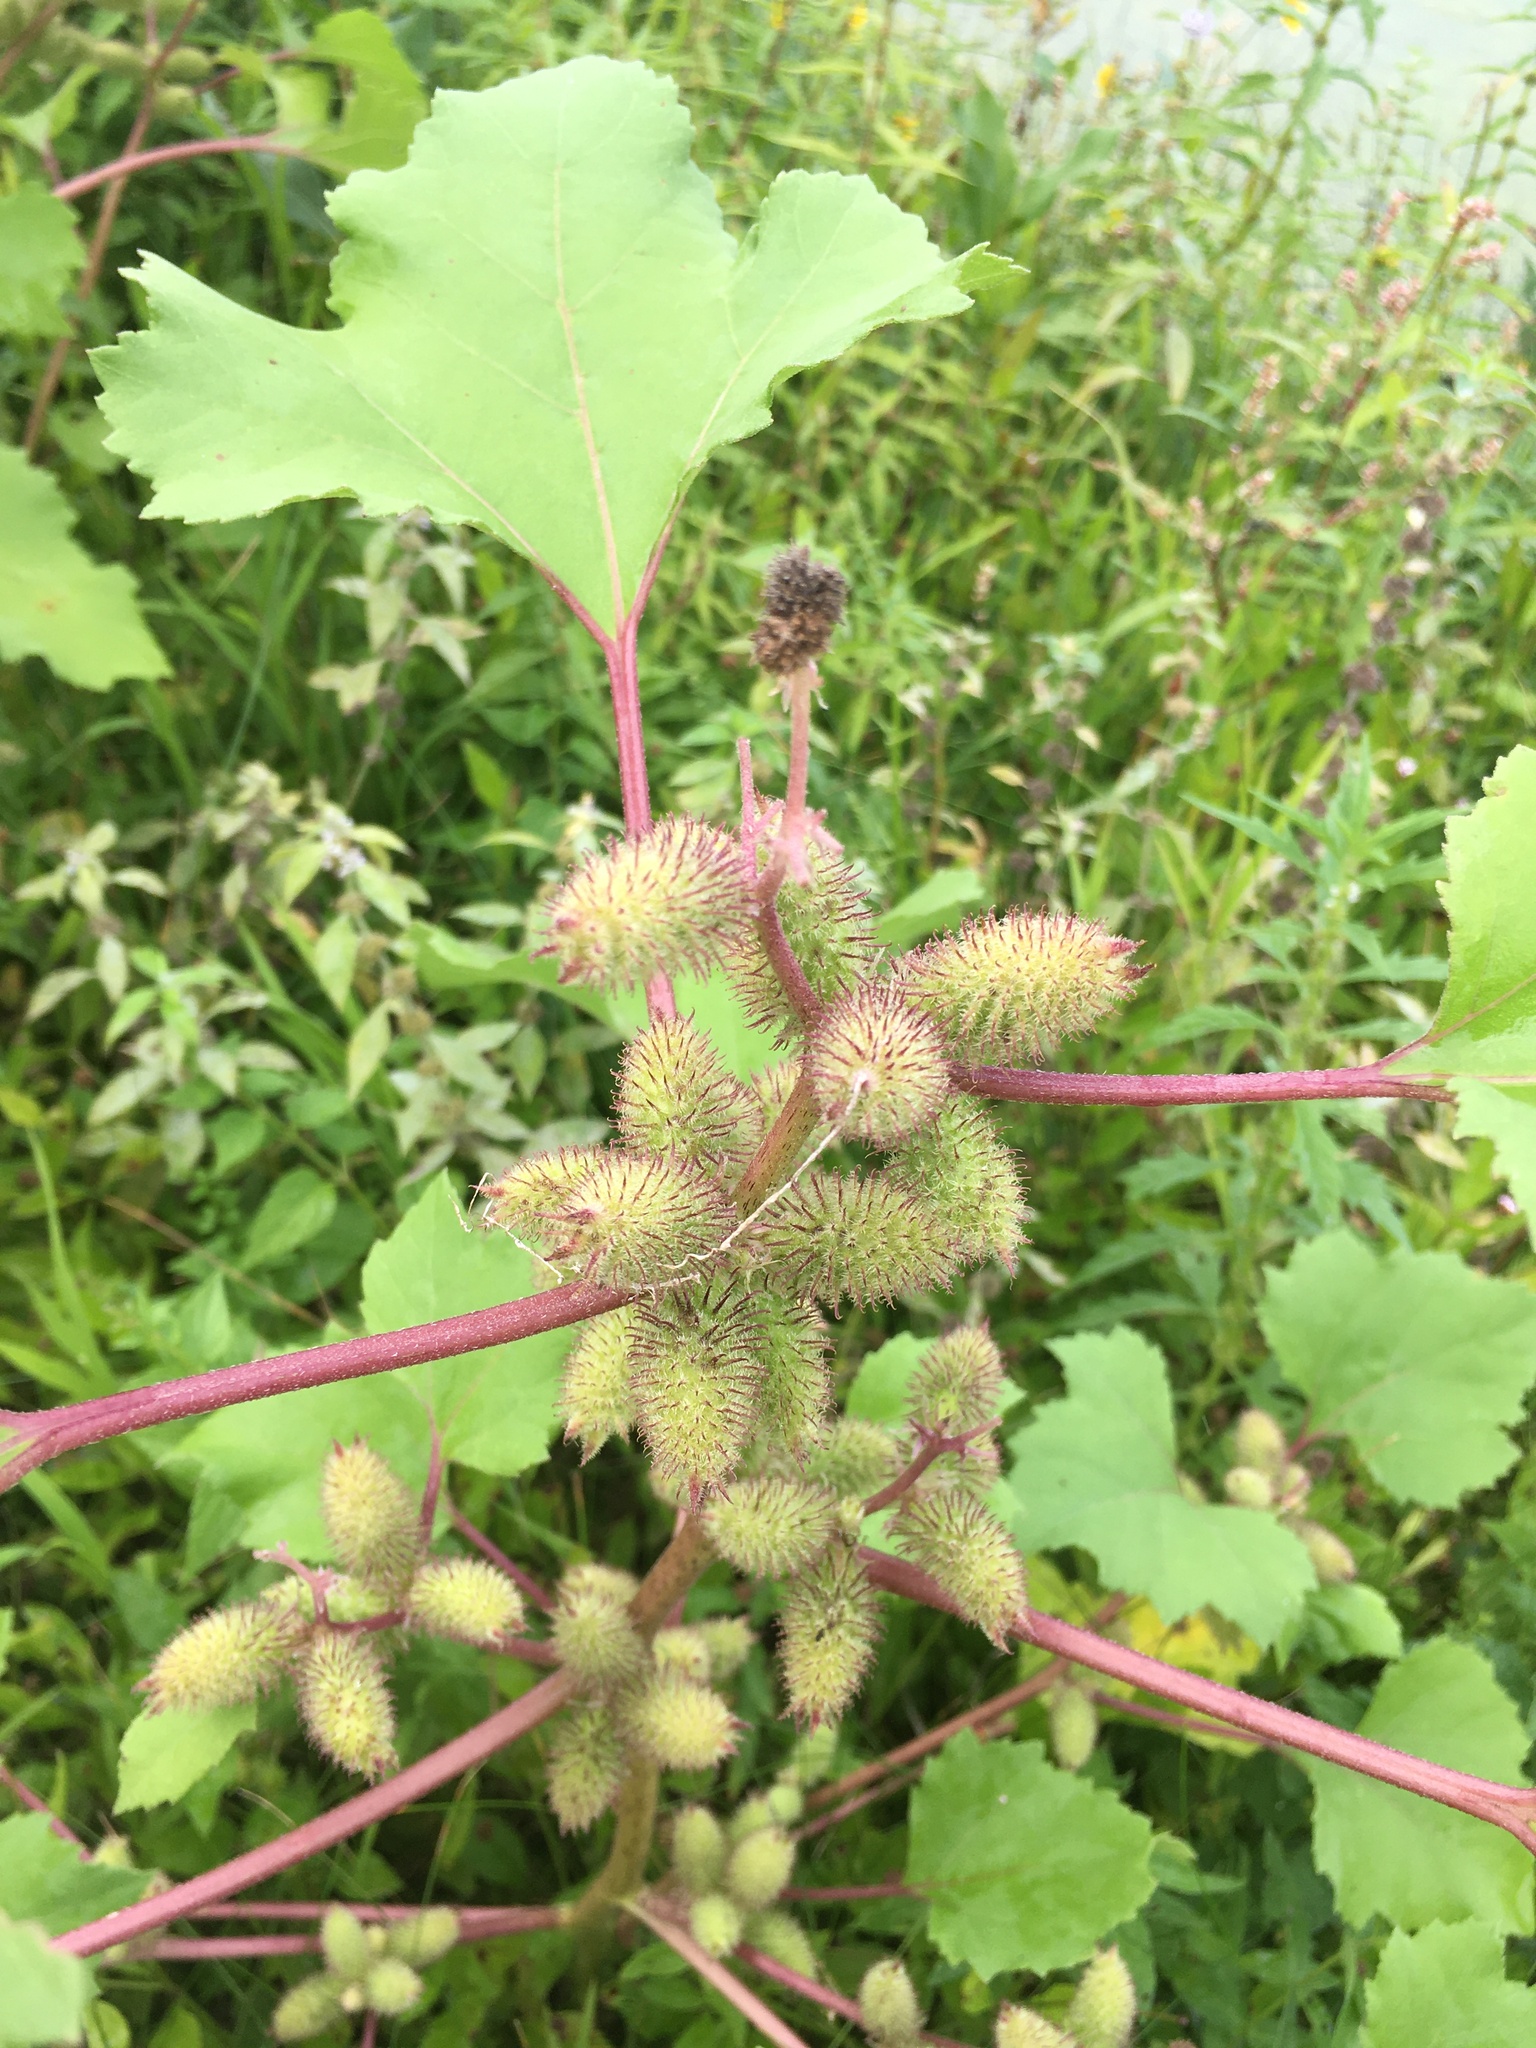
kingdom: Plantae
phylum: Tracheophyta
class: Magnoliopsida
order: Asterales
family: Asteraceae
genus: Xanthium
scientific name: Xanthium strumarium
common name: Rough cocklebur
